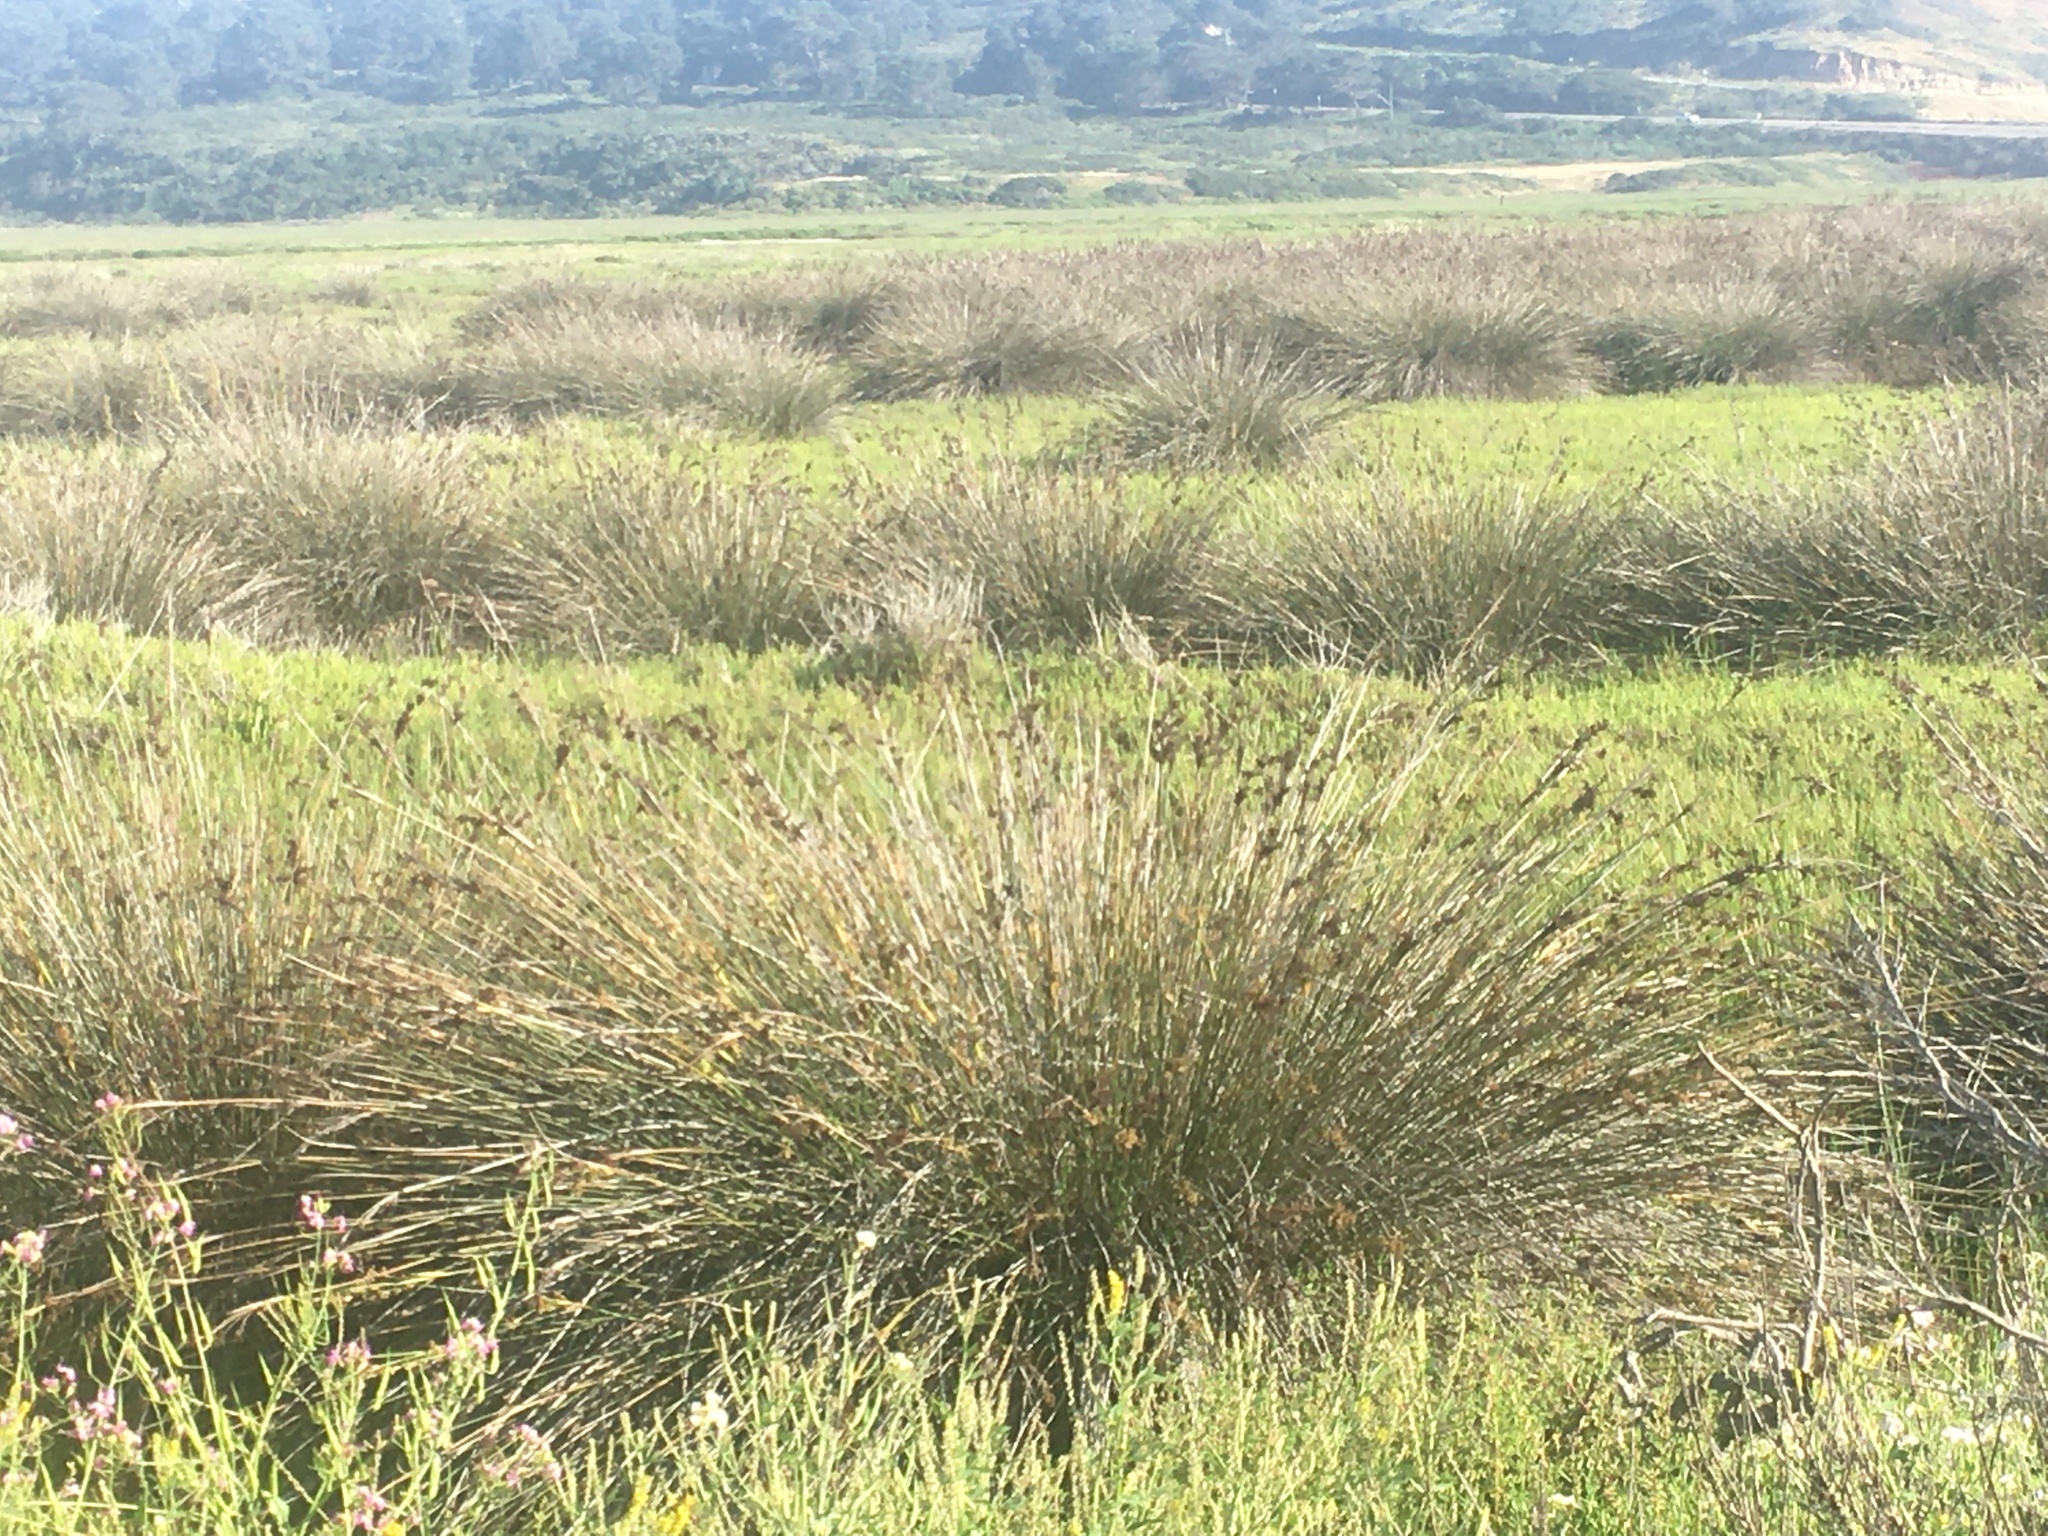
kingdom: Plantae
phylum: Tracheophyta
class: Liliopsida
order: Poales
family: Juncaceae
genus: Juncus
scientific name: Juncus acutus
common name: Sharp rush
